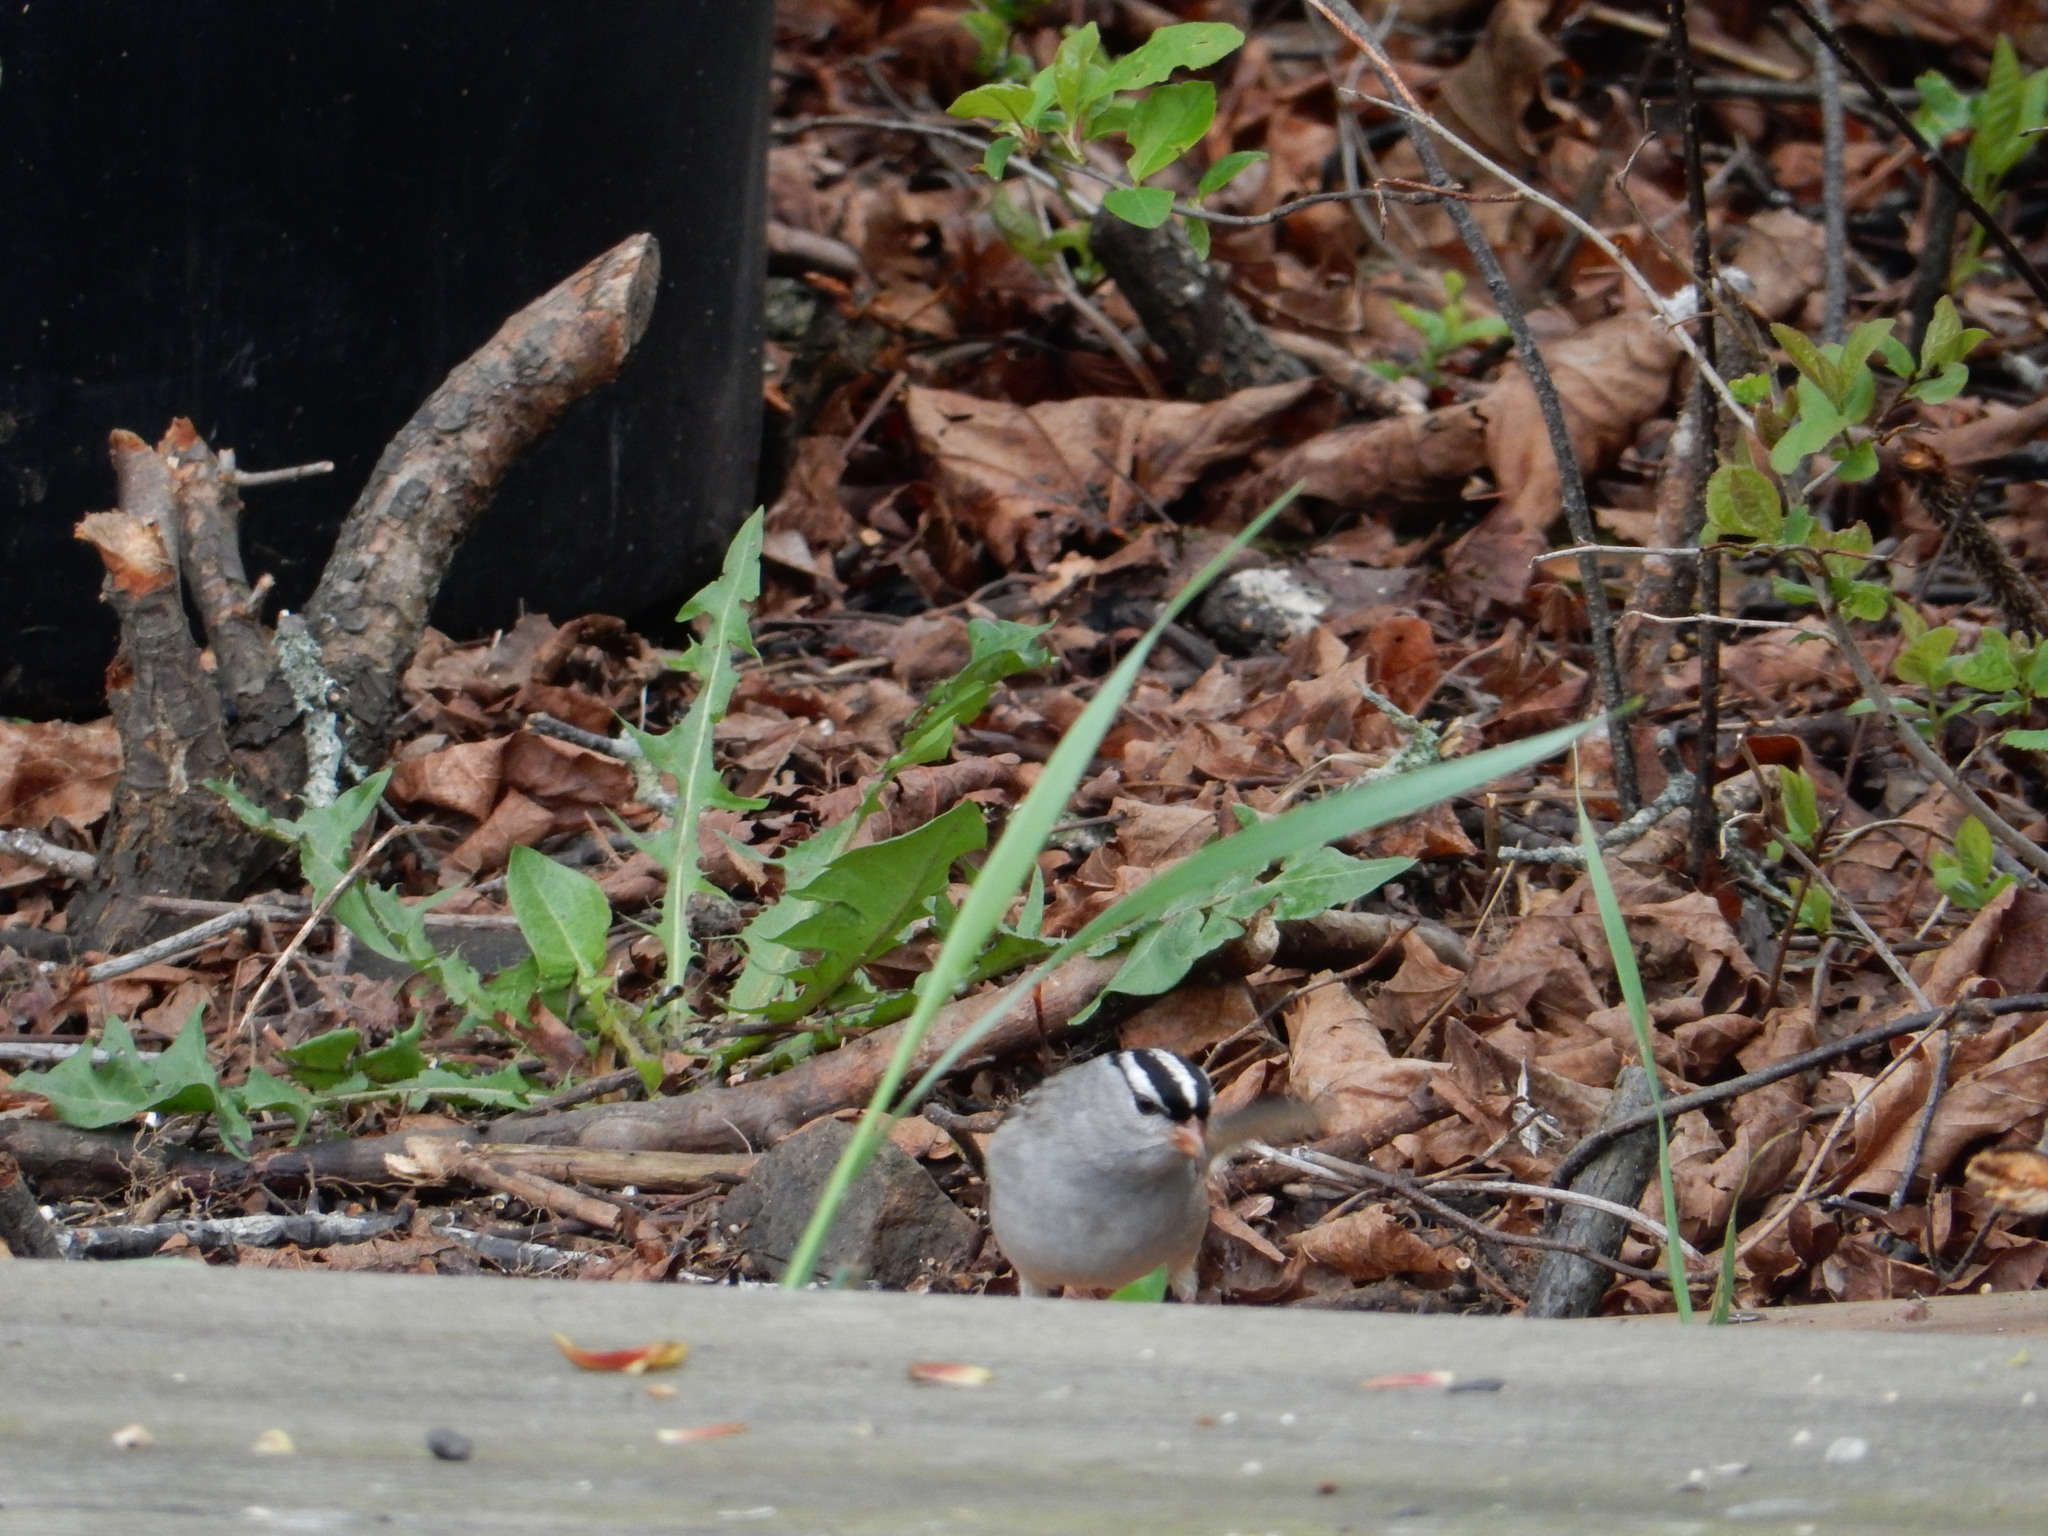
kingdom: Animalia
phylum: Chordata
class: Aves
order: Passeriformes
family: Passerellidae
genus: Zonotrichia
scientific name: Zonotrichia leucophrys
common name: White-crowned sparrow
